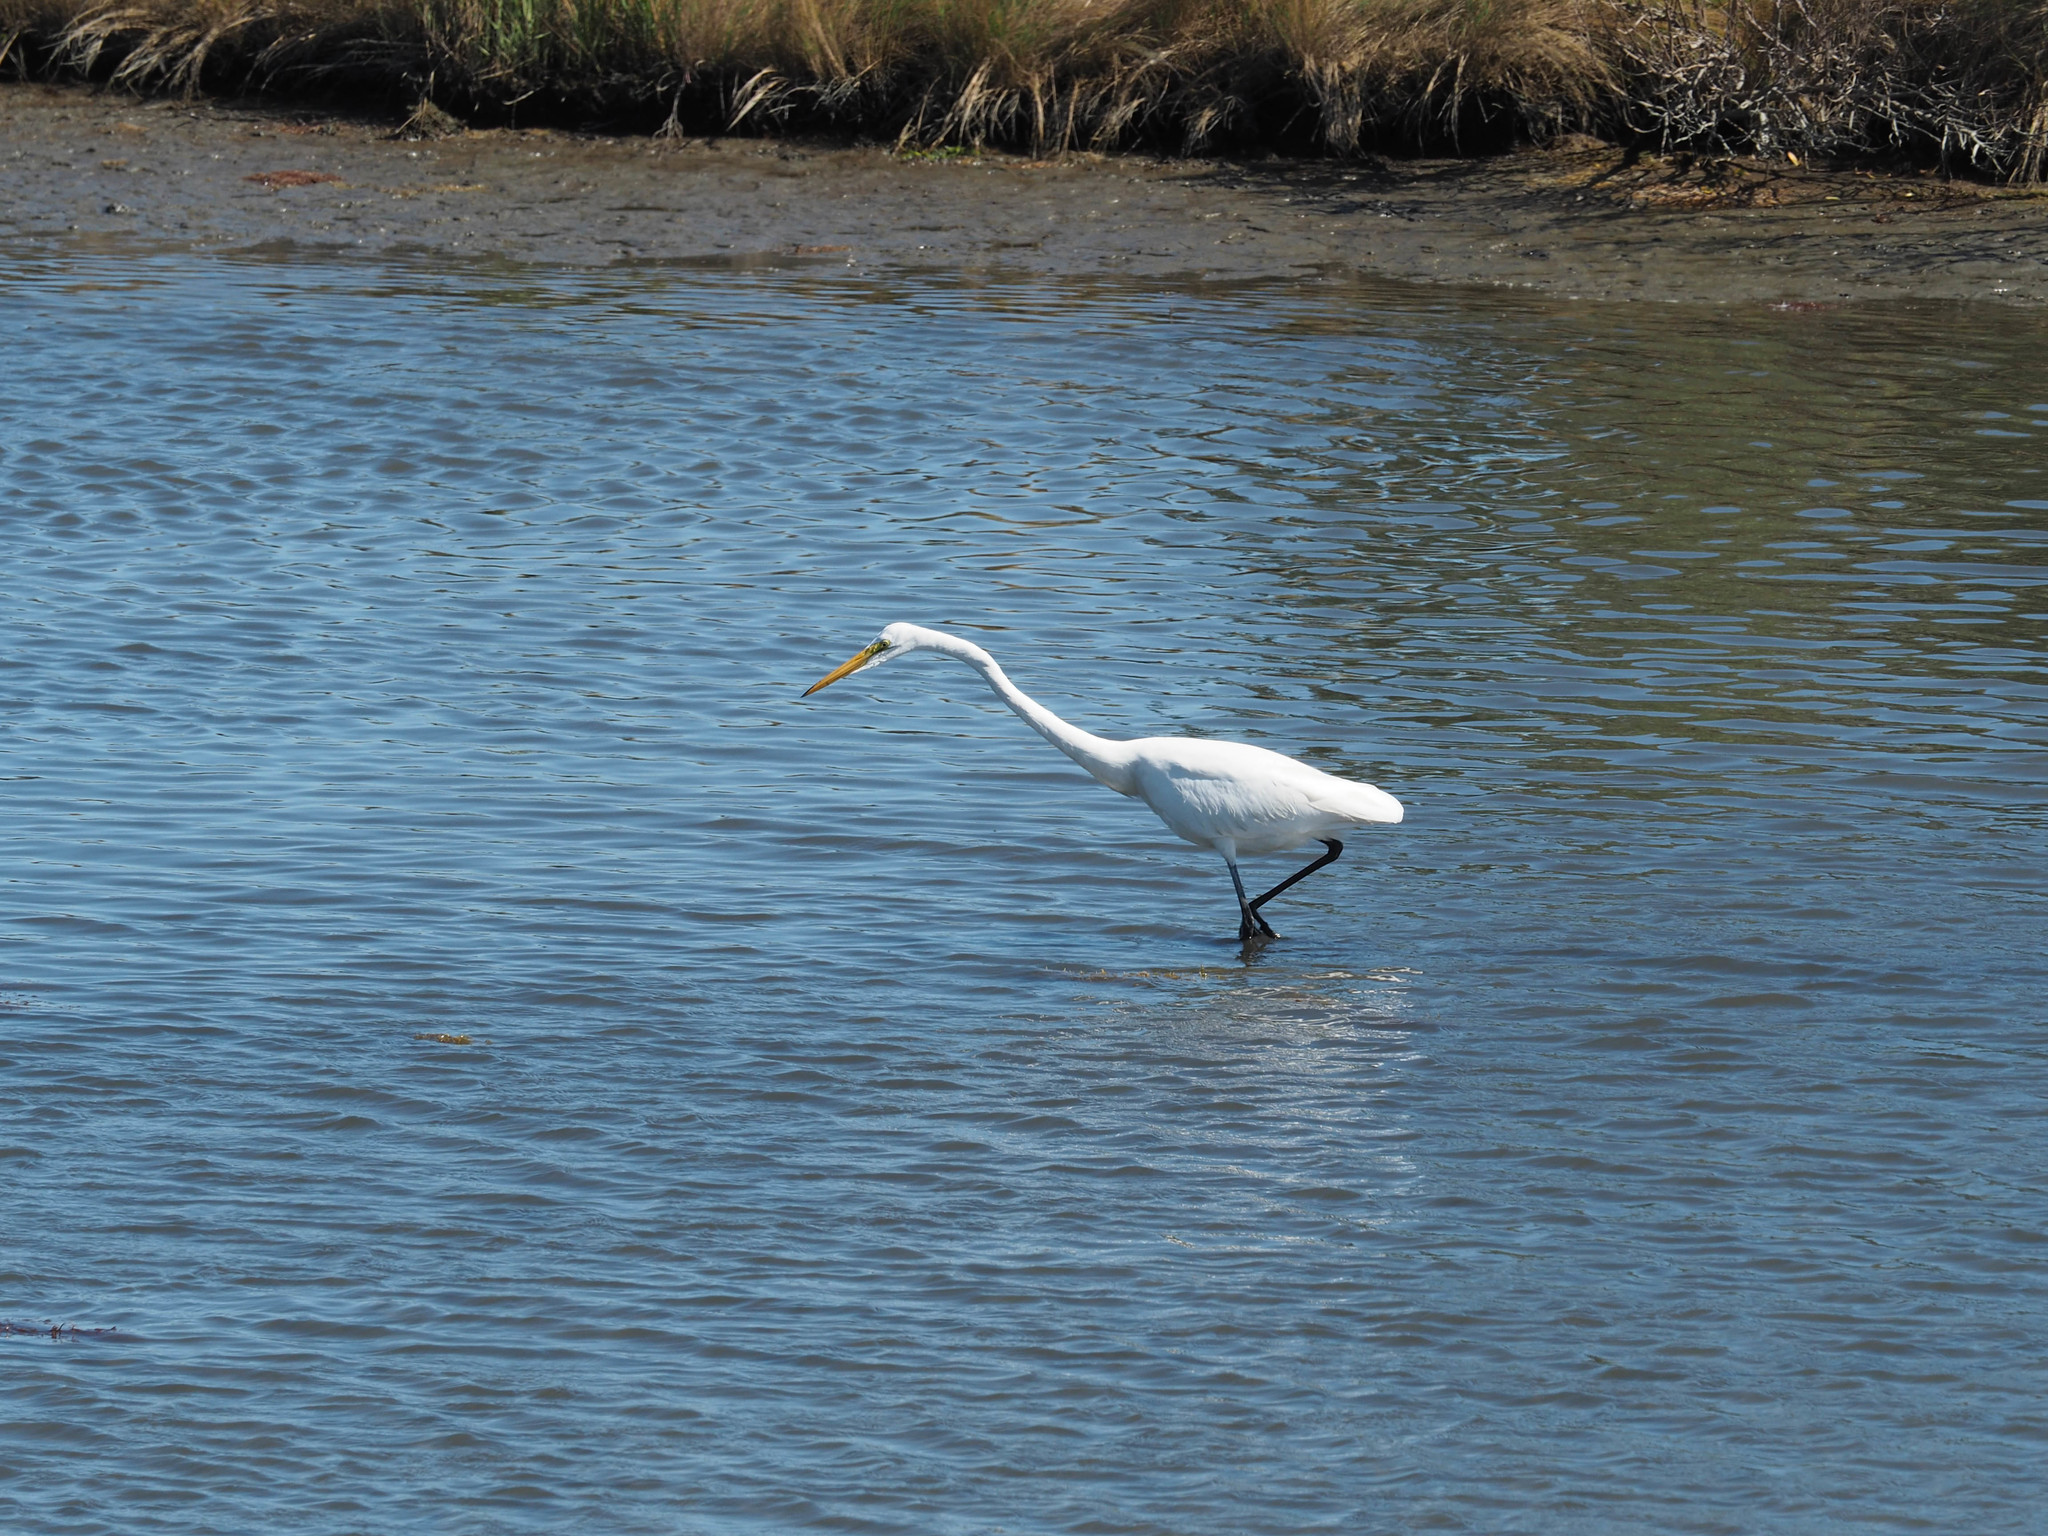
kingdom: Animalia
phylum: Chordata
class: Aves
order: Pelecaniformes
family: Ardeidae
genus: Ardea
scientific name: Ardea alba
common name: Great egret
